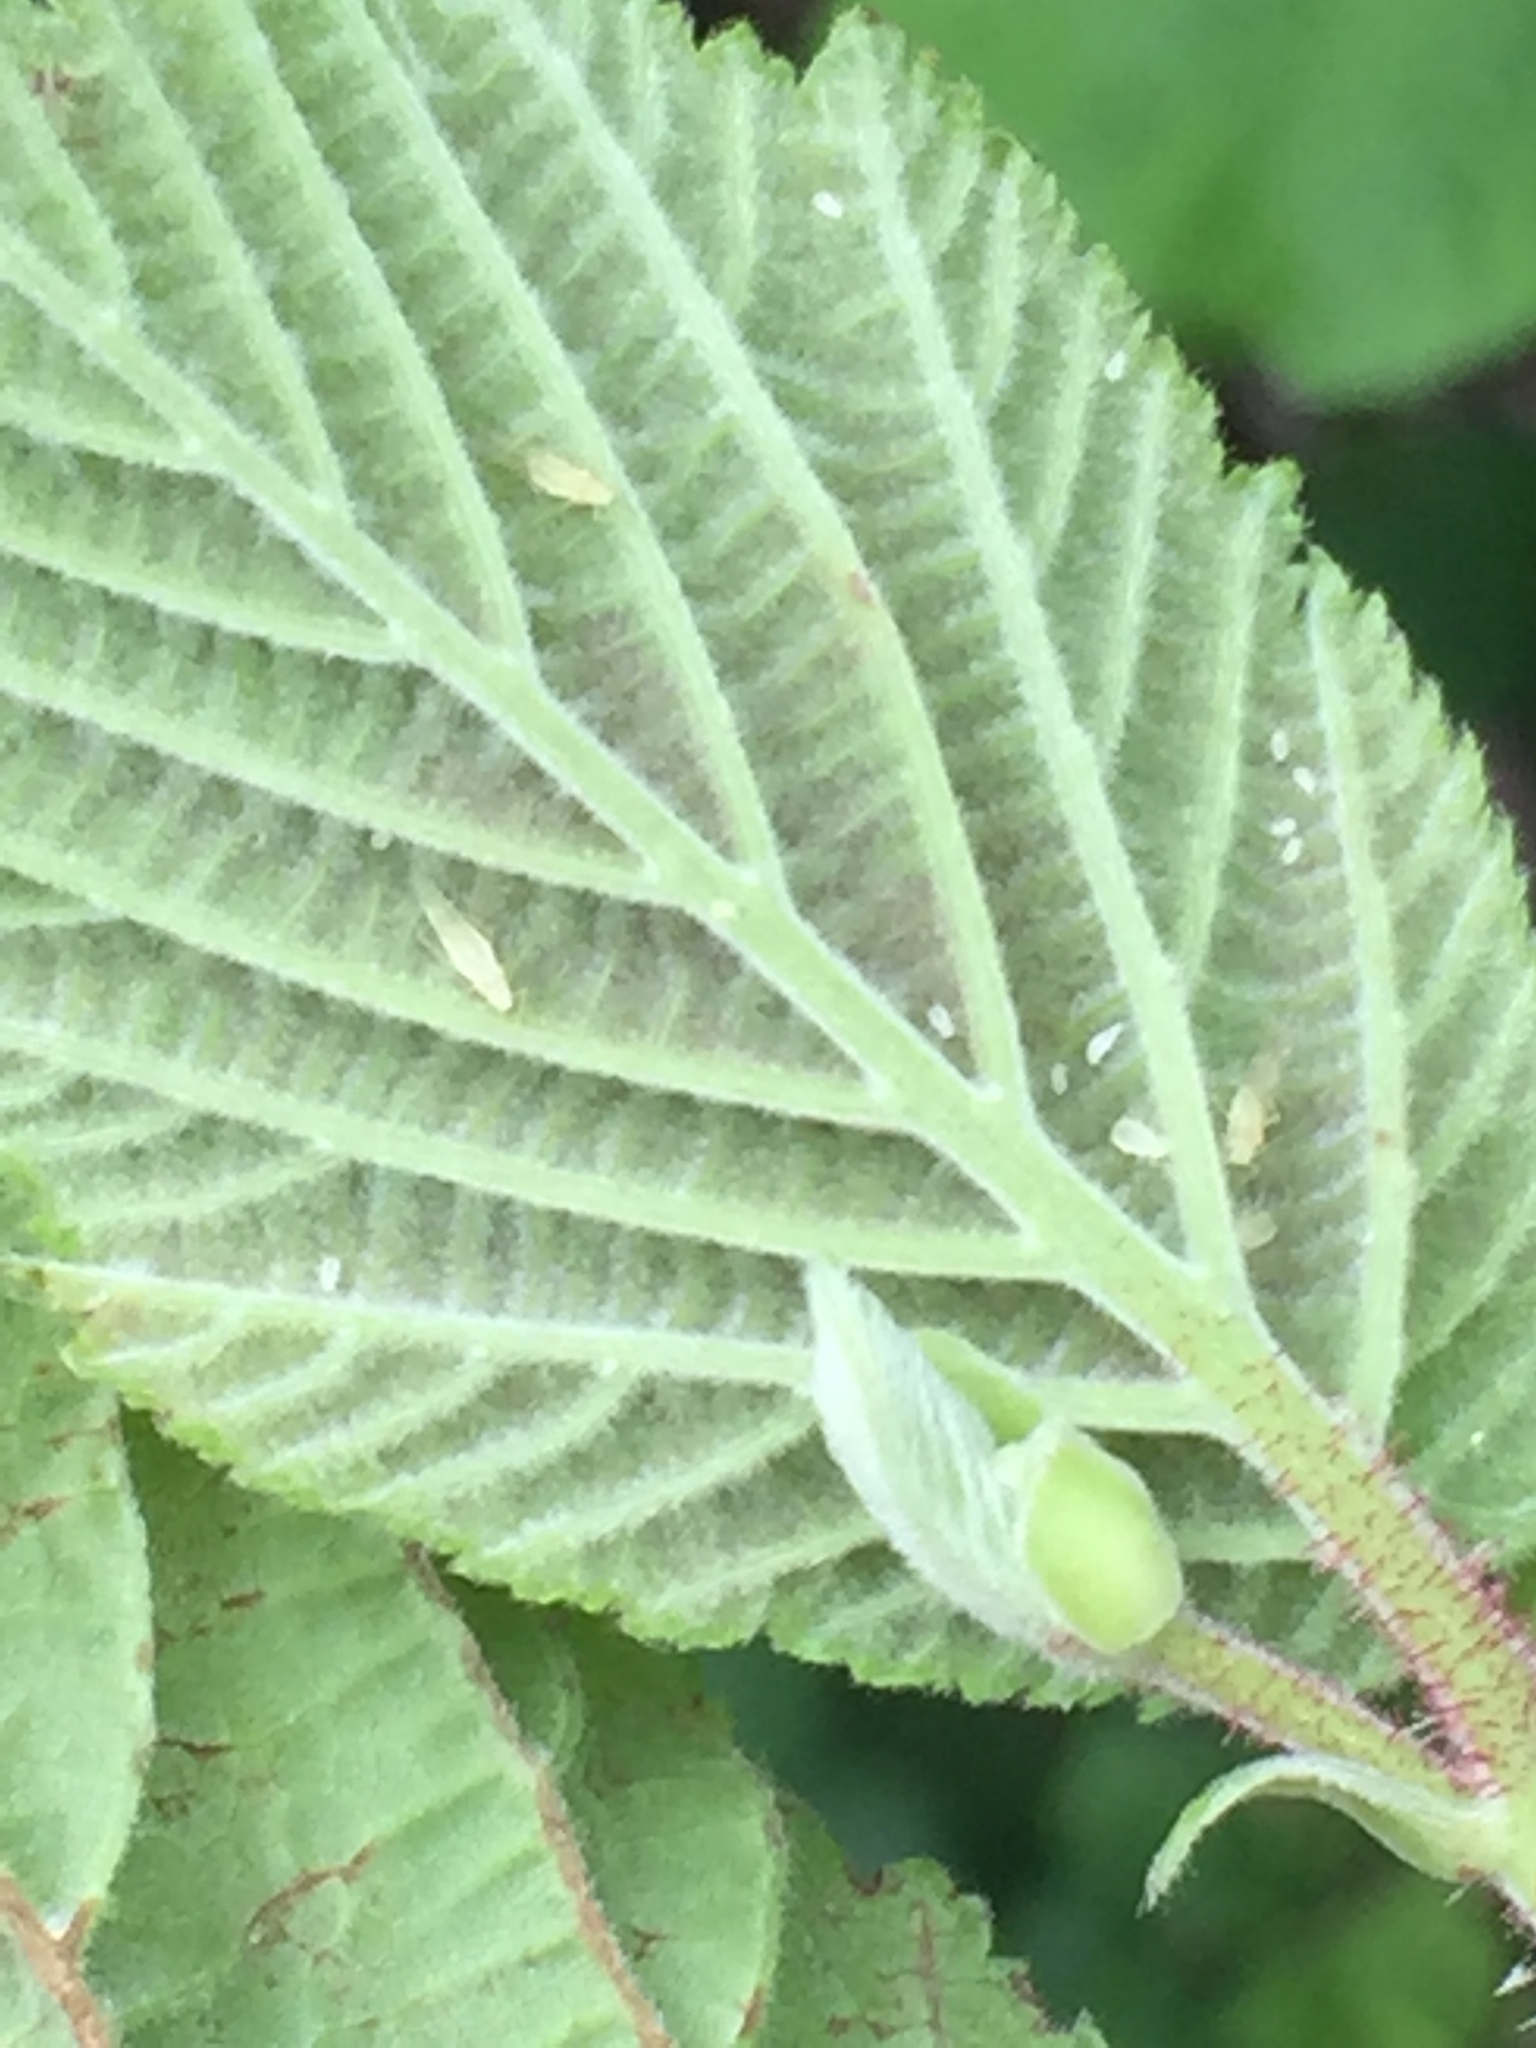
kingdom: Animalia
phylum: Arthropoda
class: Insecta
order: Hemiptera
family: Aphididae
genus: Myzocallis
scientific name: Myzocallis coryli
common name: Filbert aphid
